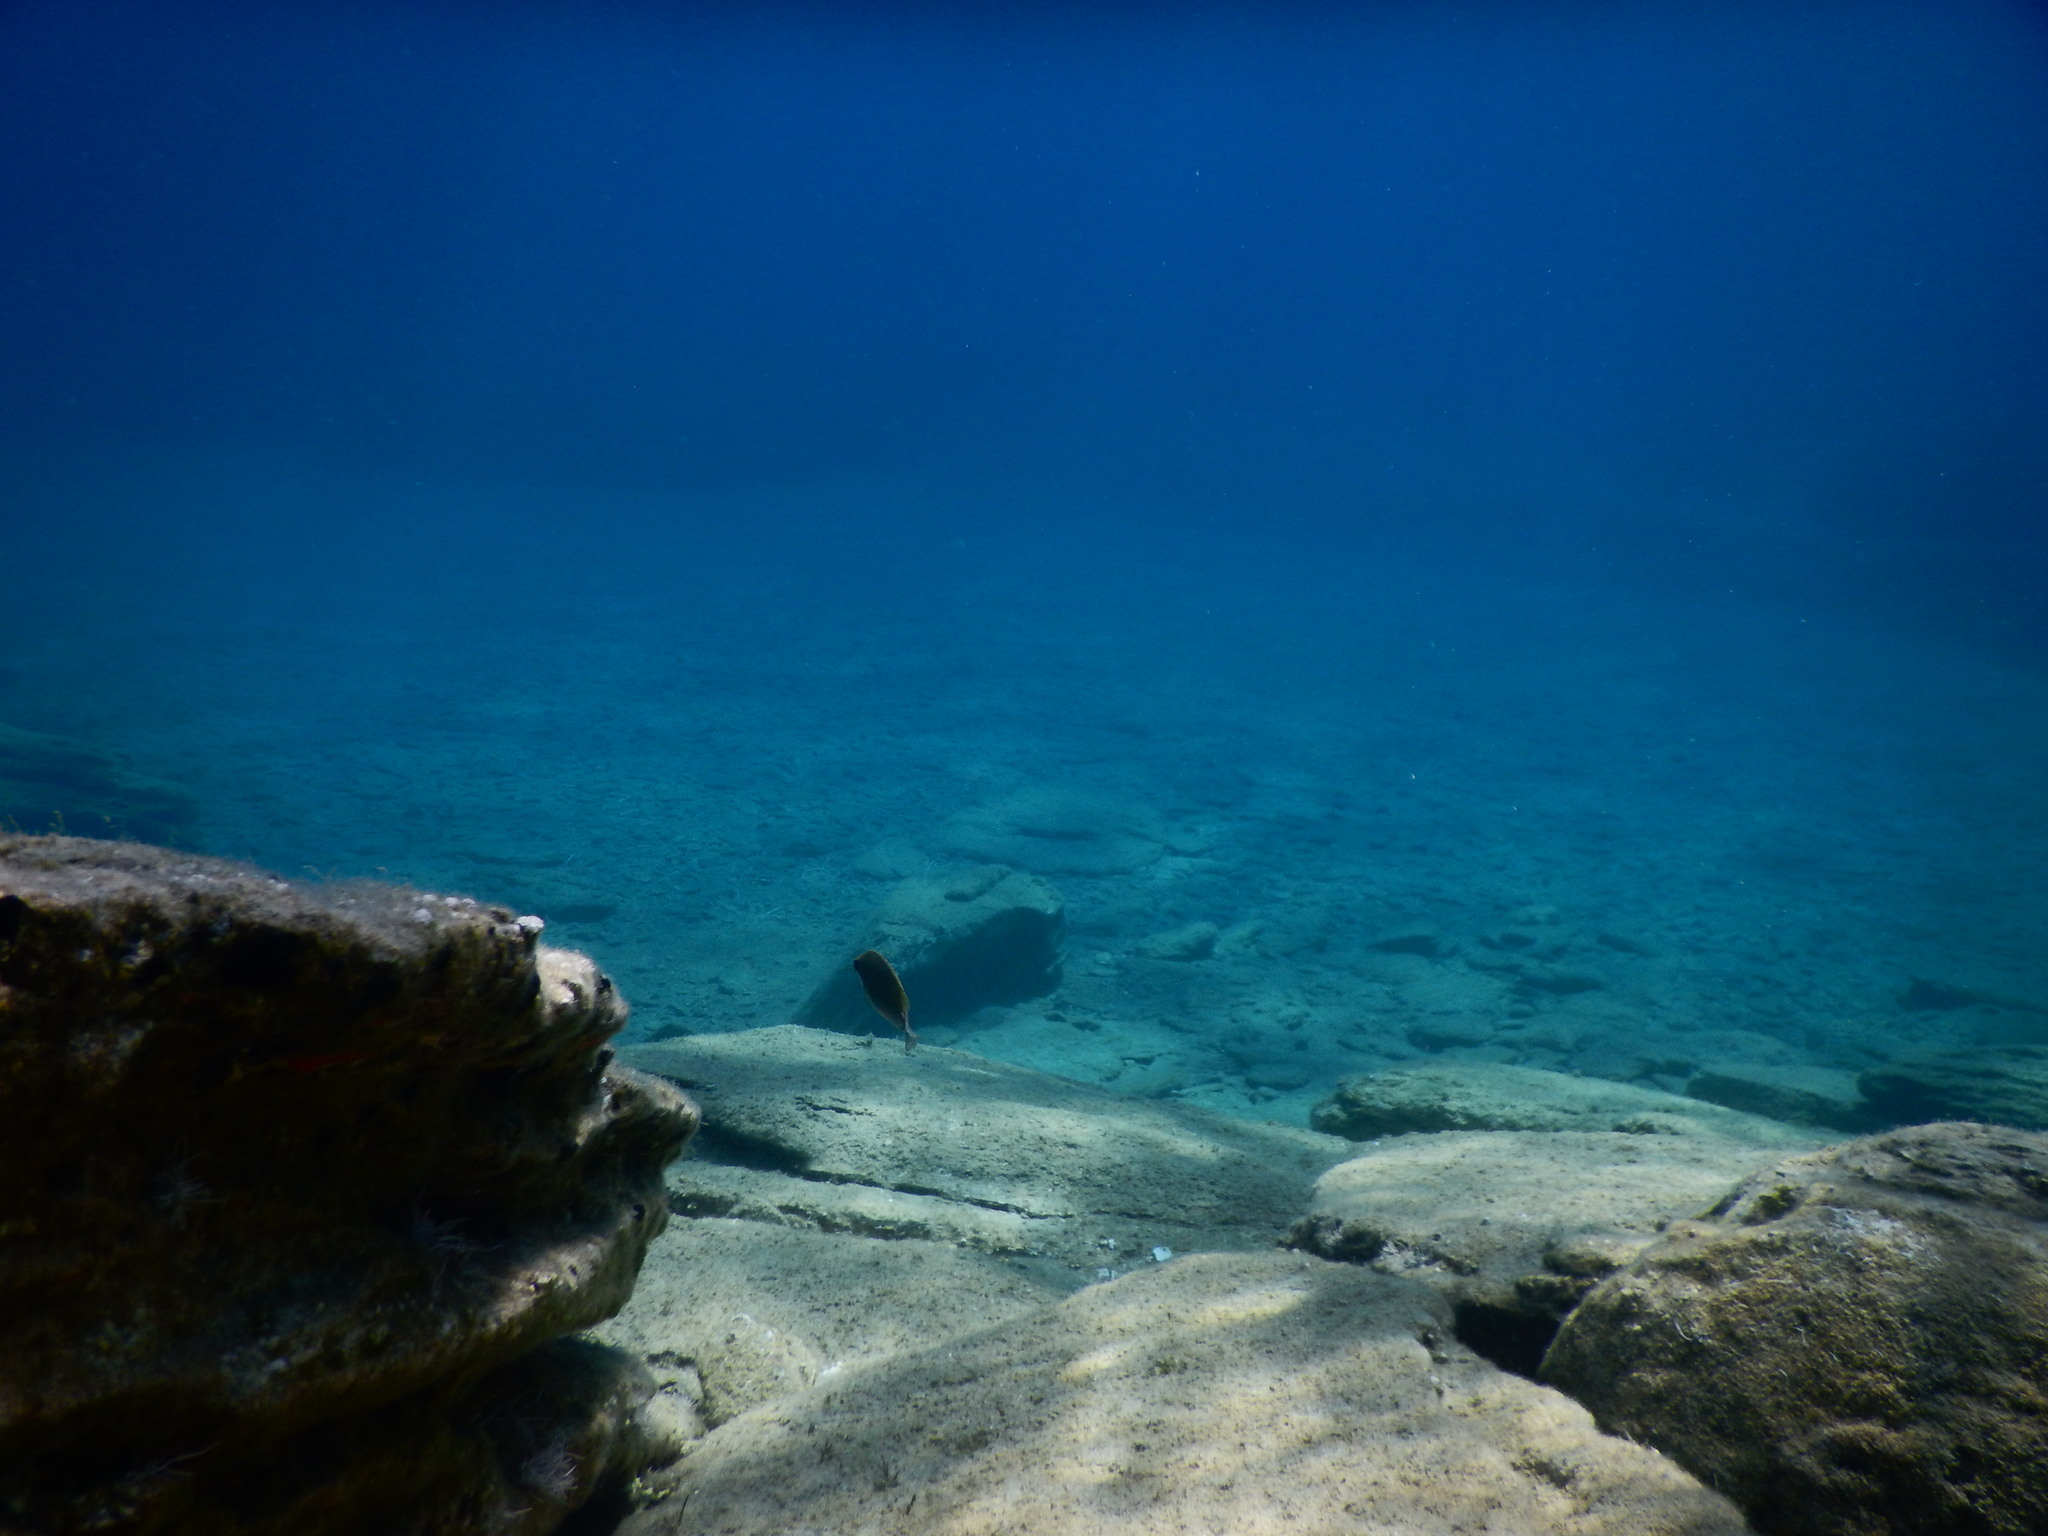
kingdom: Animalia
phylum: Chordata
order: Perciformes
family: Siganidae
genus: Siganus
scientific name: Siganus
